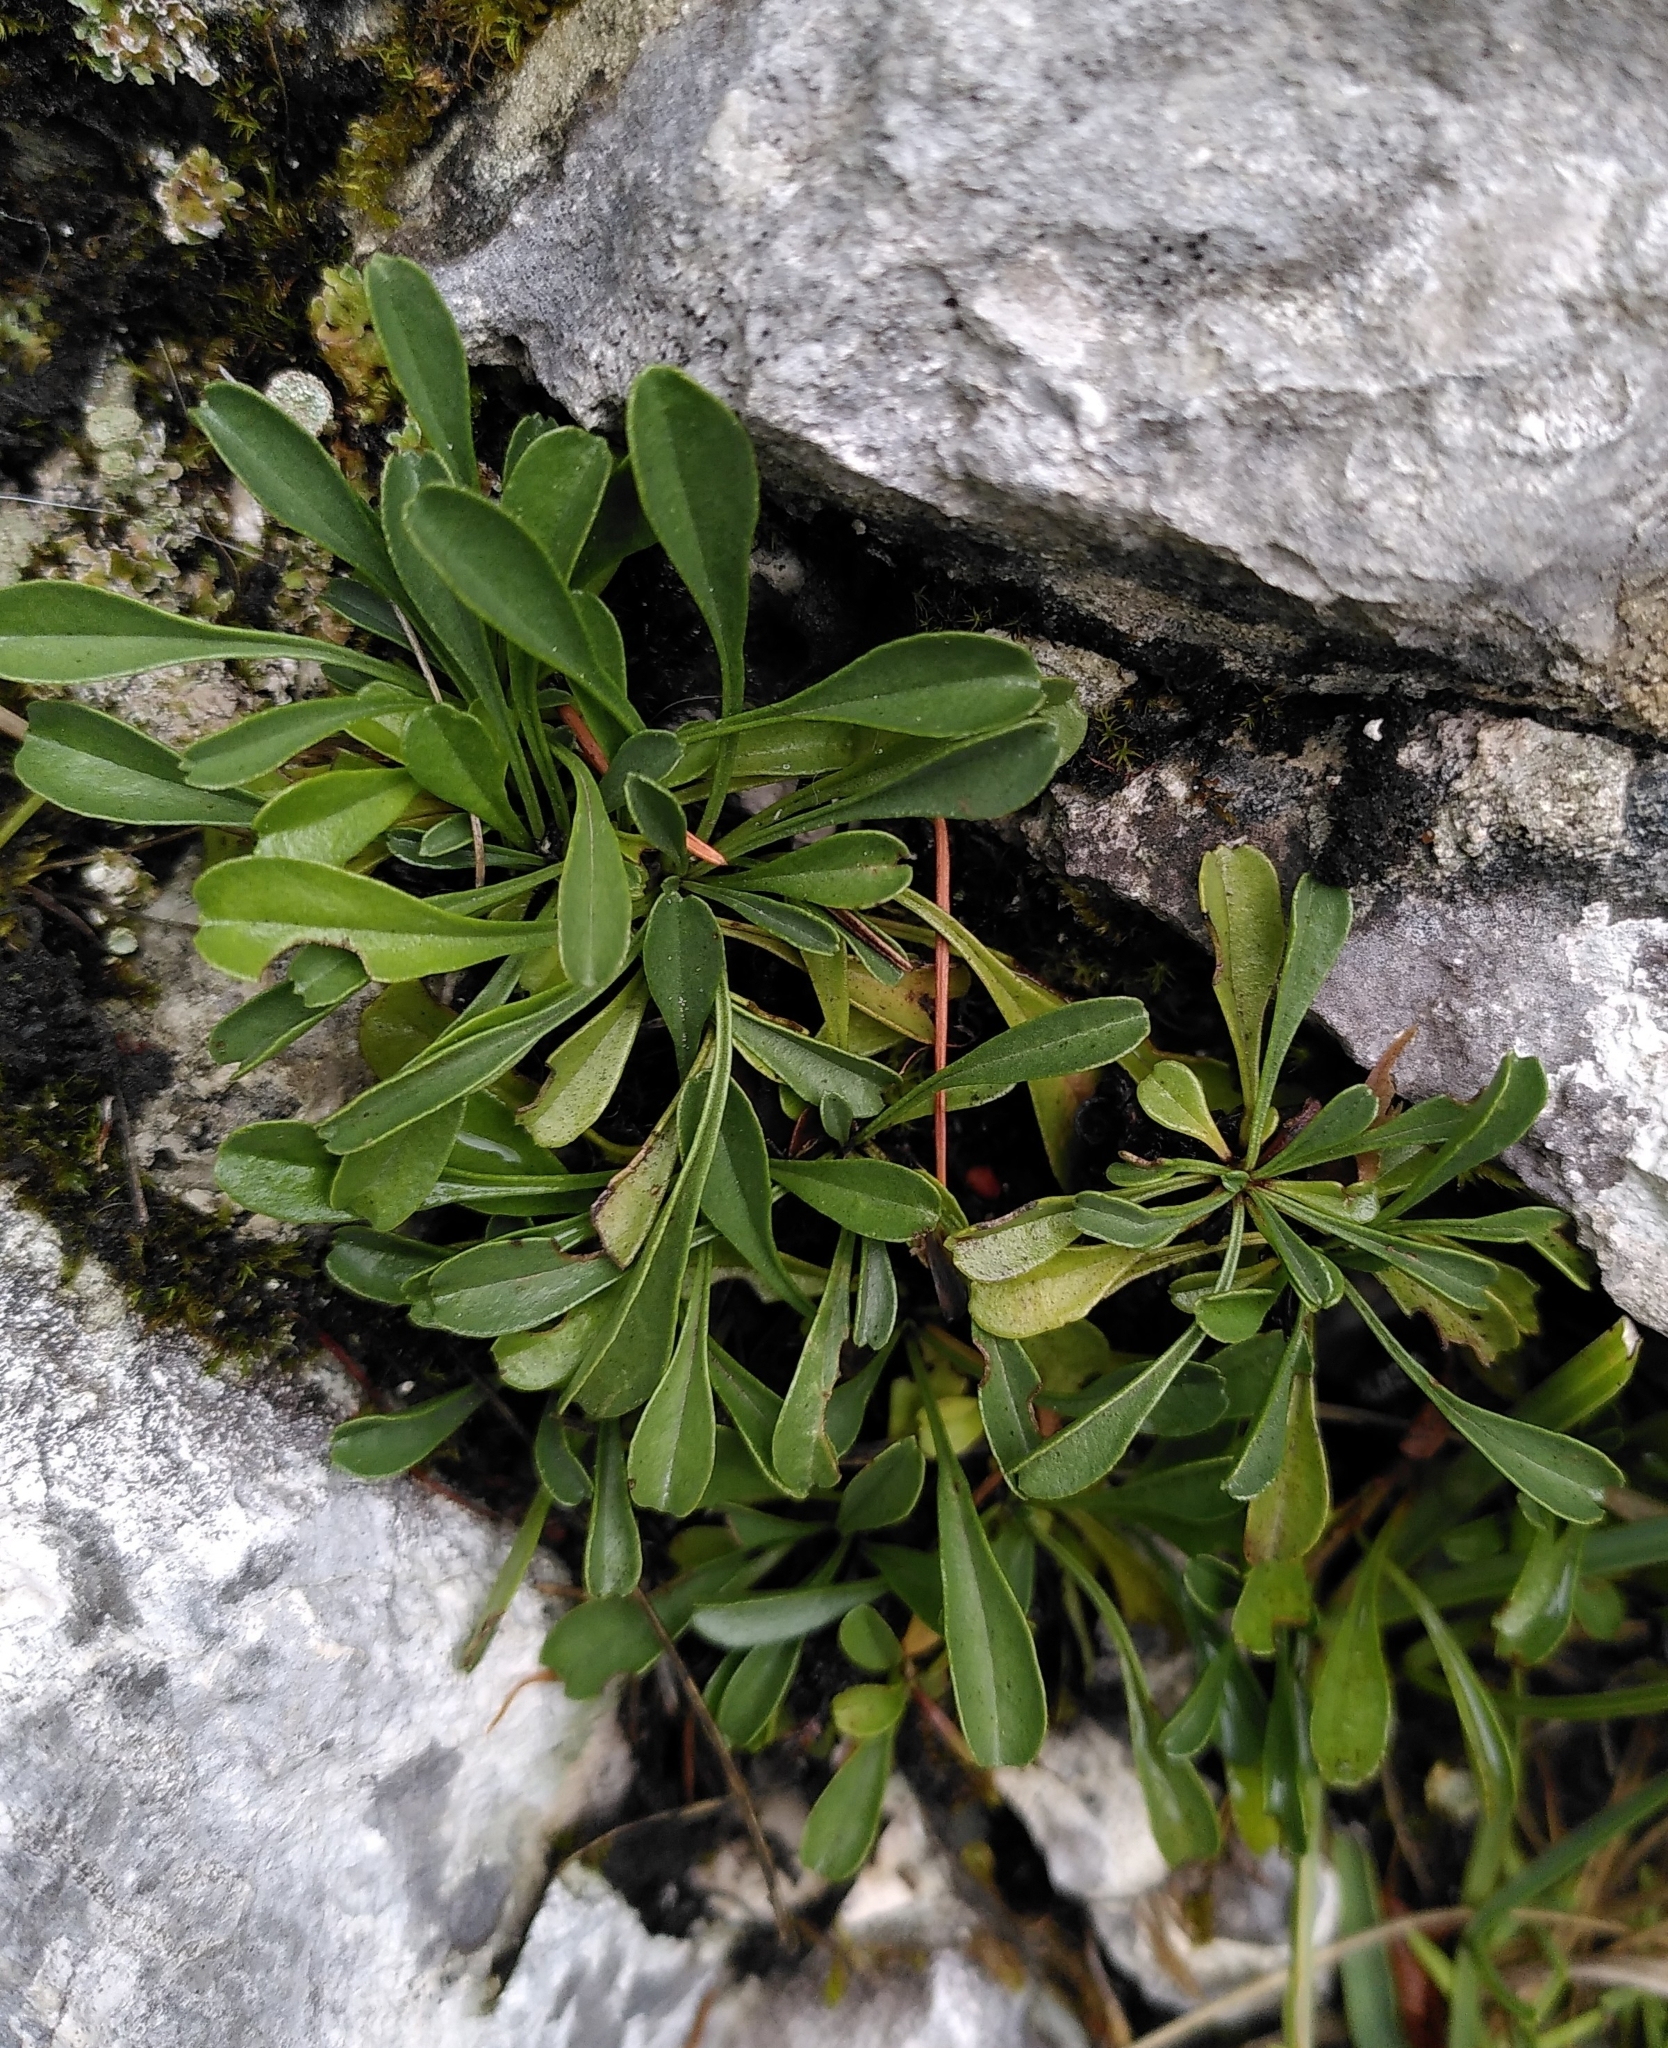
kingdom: Plantae
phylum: Tracheophyta
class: Magnoliopsida
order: Lamiales
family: Plantaginaceae
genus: Globularia
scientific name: Globularia cordifolia
